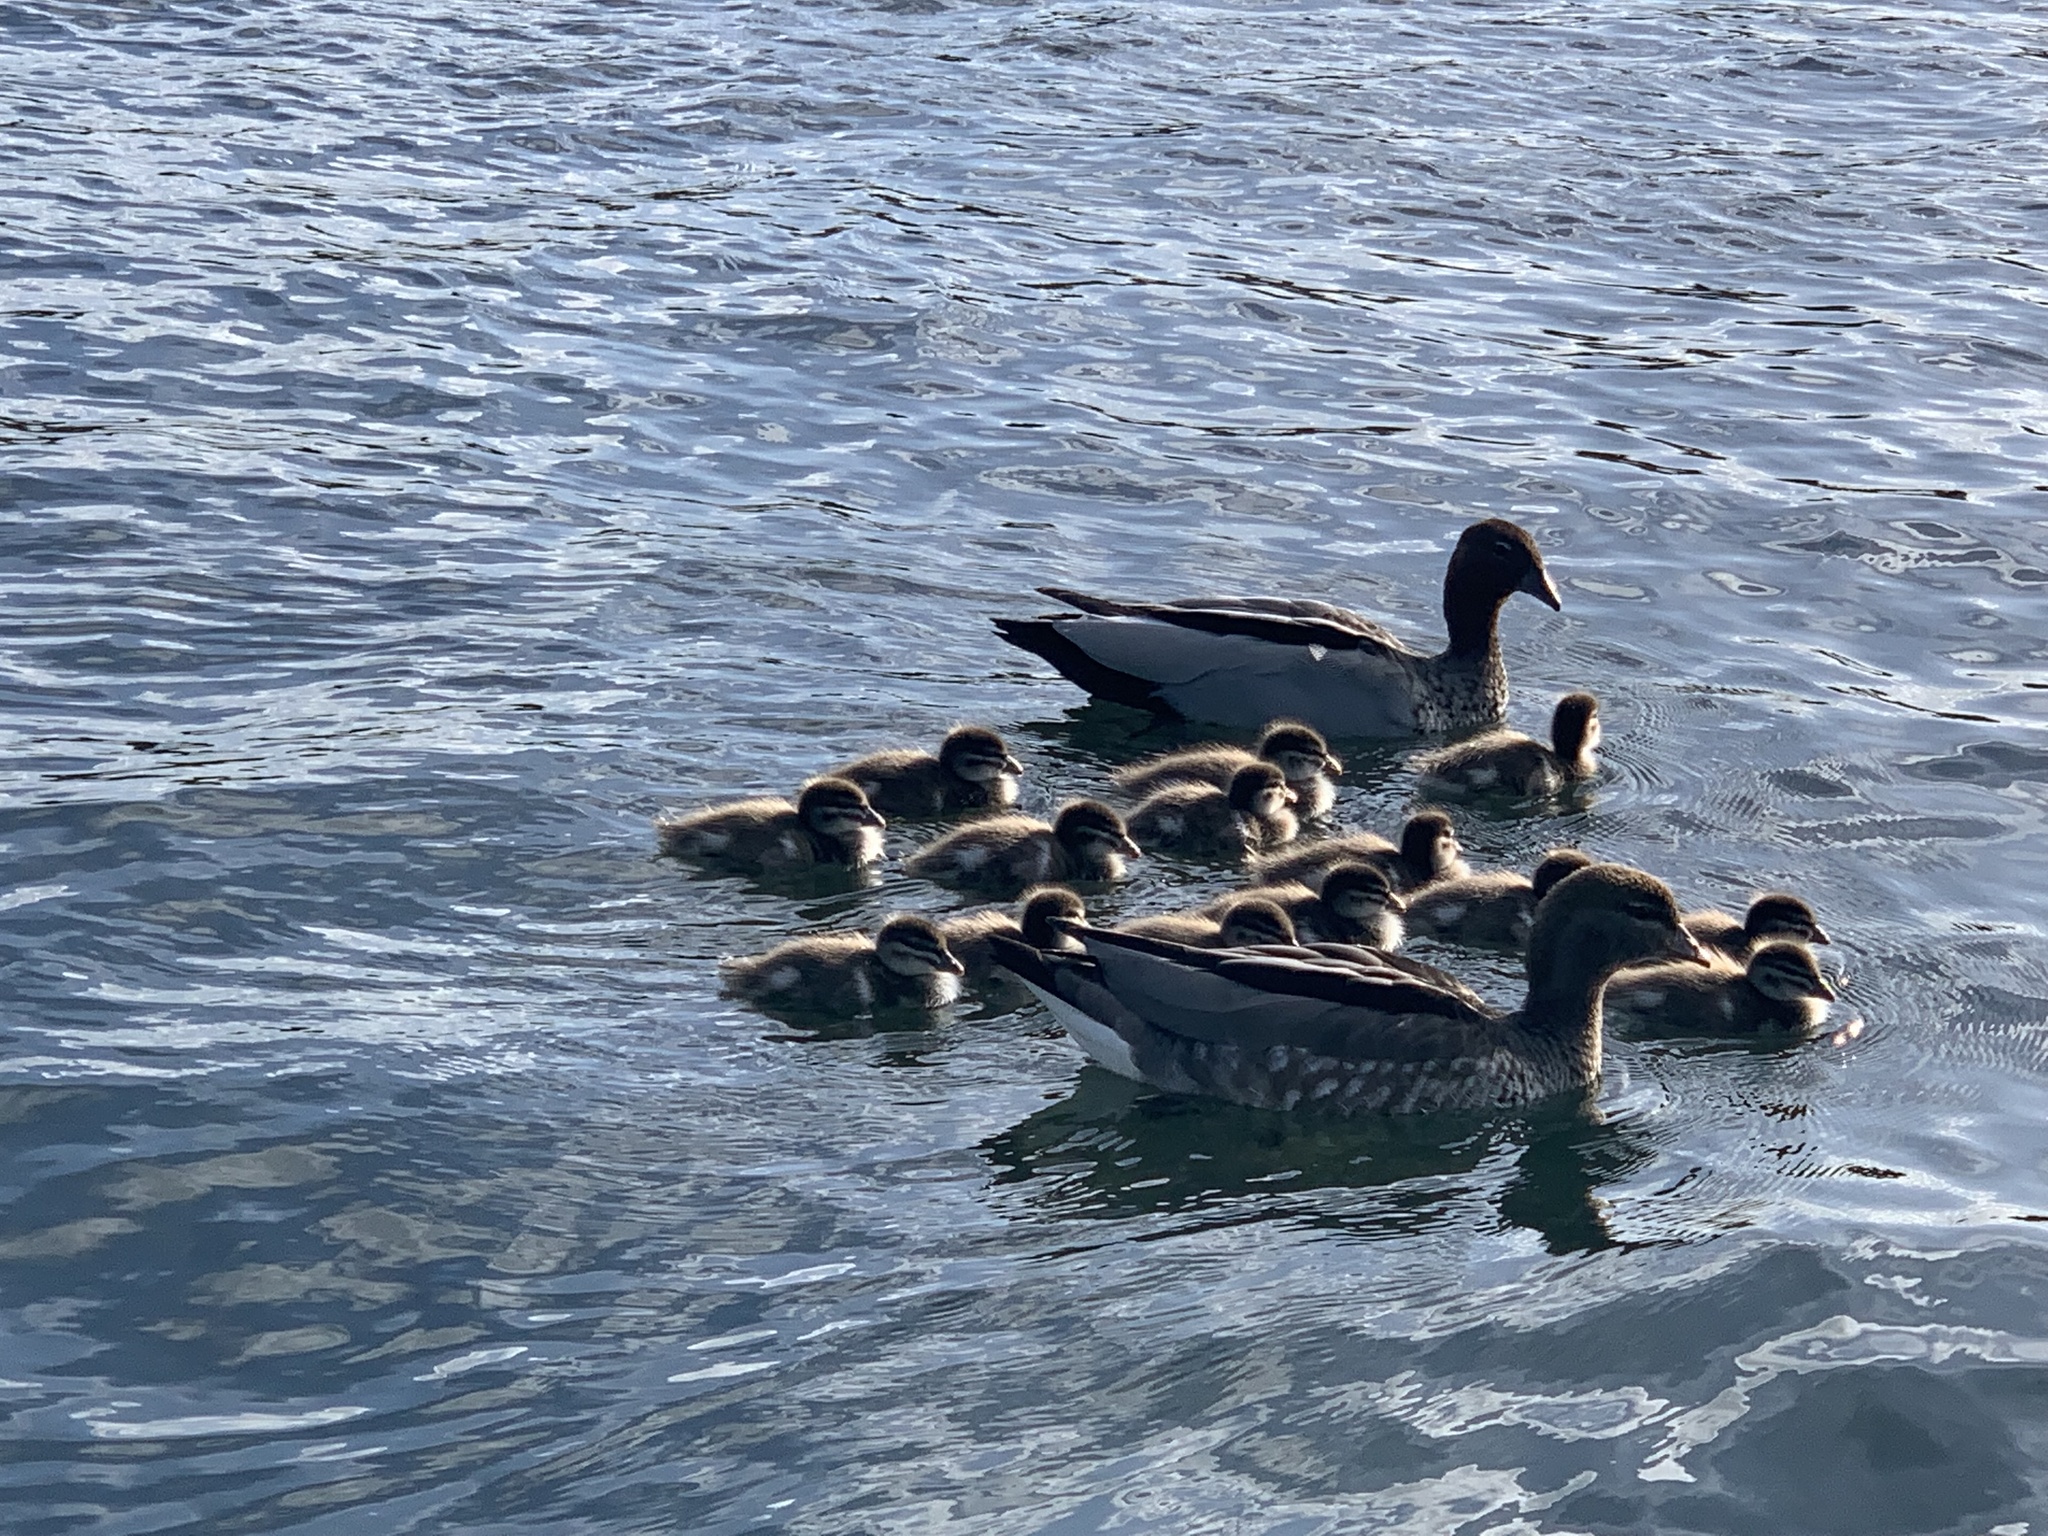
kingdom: Animalia
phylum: Chordata
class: Aves
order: Anseriformes
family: Anatidae
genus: Chenonetta
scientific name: Chenonetta jubata
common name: Maned duck
